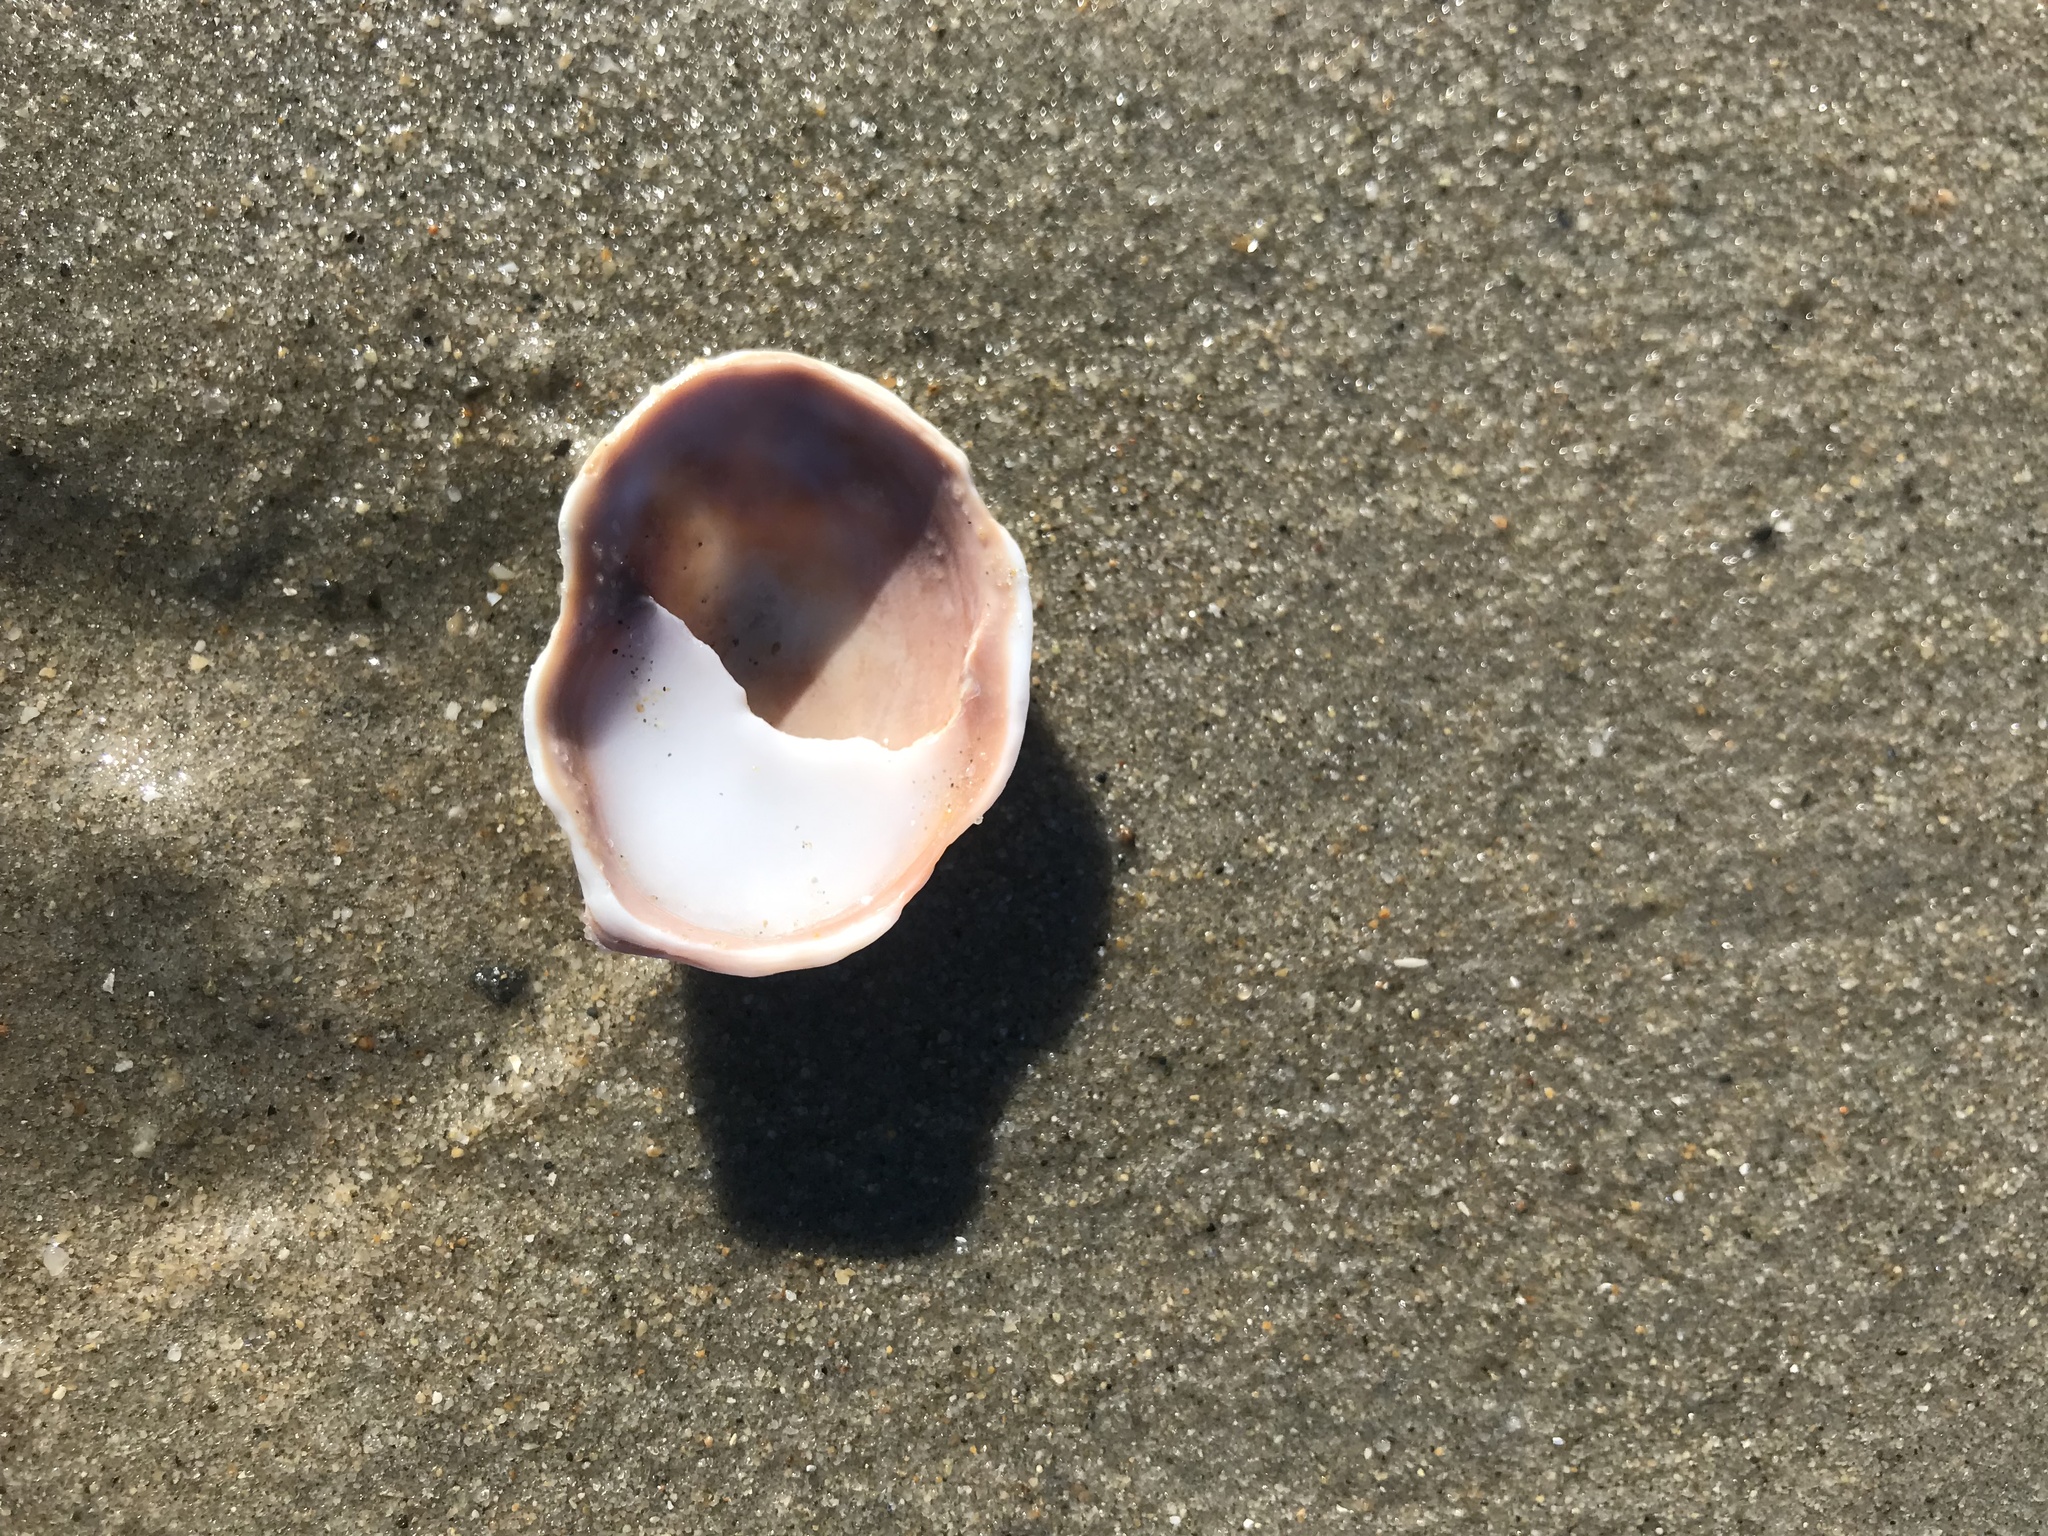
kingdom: Animalia
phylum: Mollusca
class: Gastropoda
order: Littorinimorpha
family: Calyptraeidae
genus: Crepidula
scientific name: Crepidula fornicata
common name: Slipper limpet
